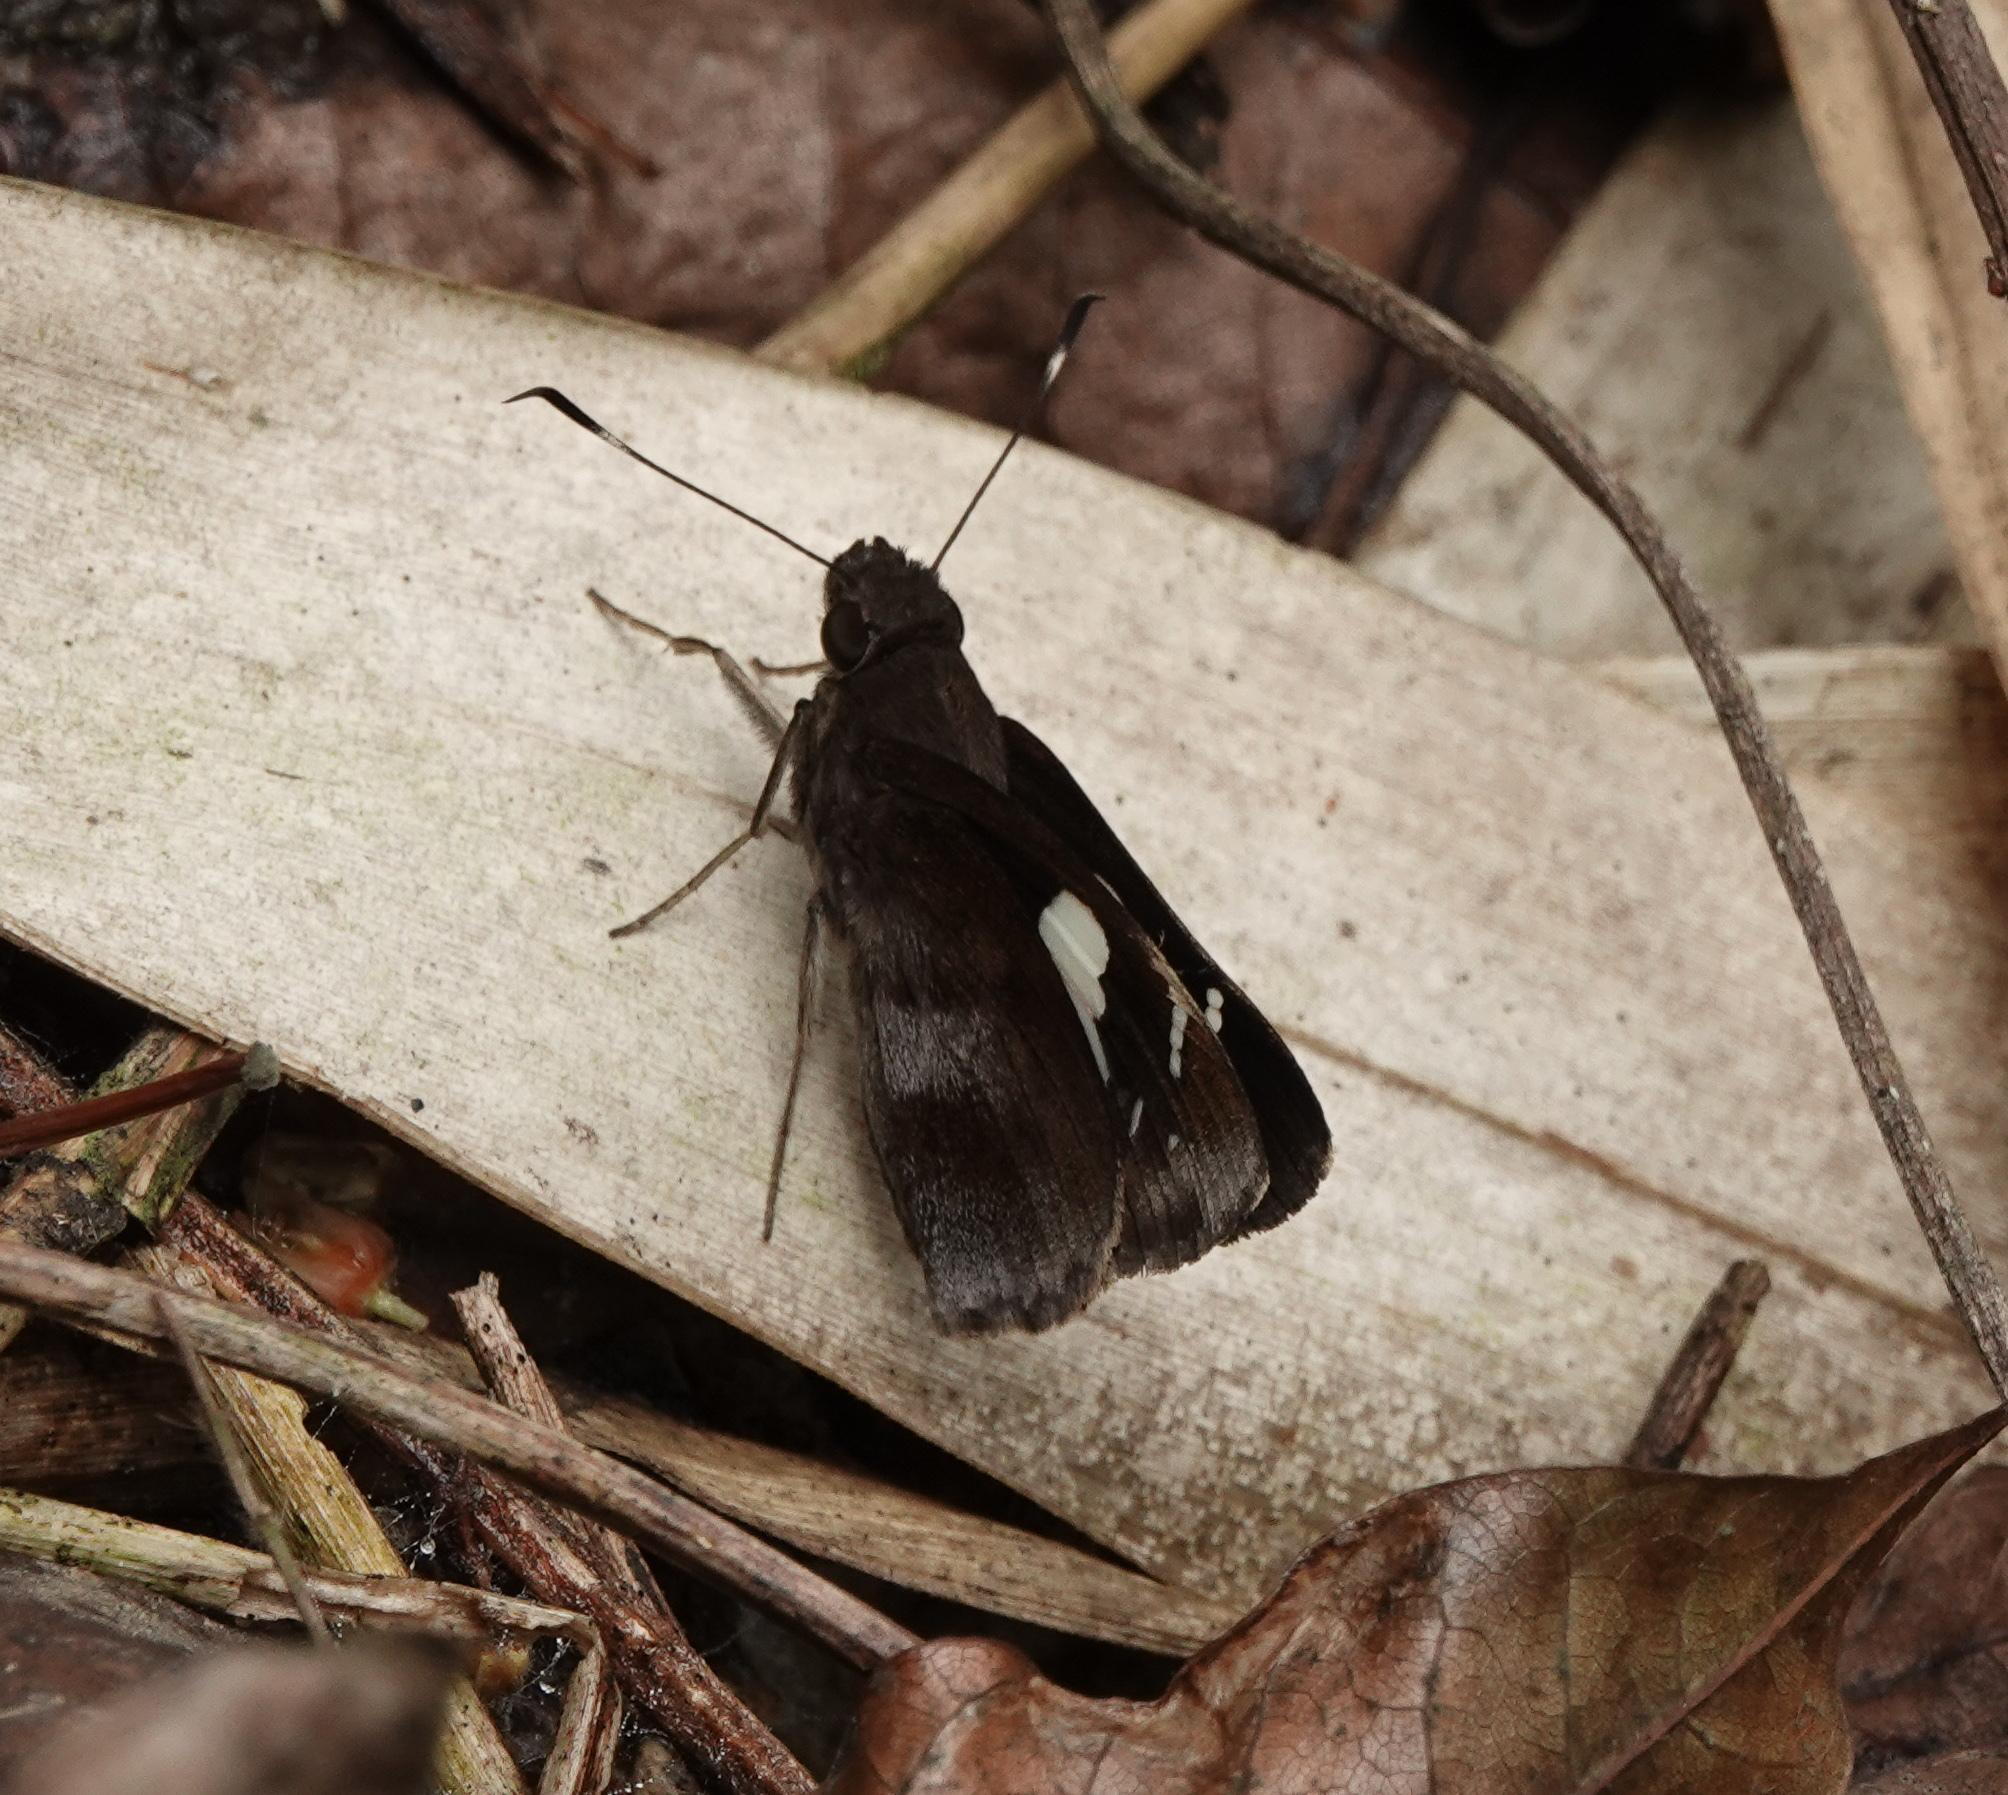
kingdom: Animalia
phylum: Arthropoda
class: Insecta
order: Lepidoptera
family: Hesperiidae
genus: Notocrypta
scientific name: Notocrypta curvifascia
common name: Restricted demon
